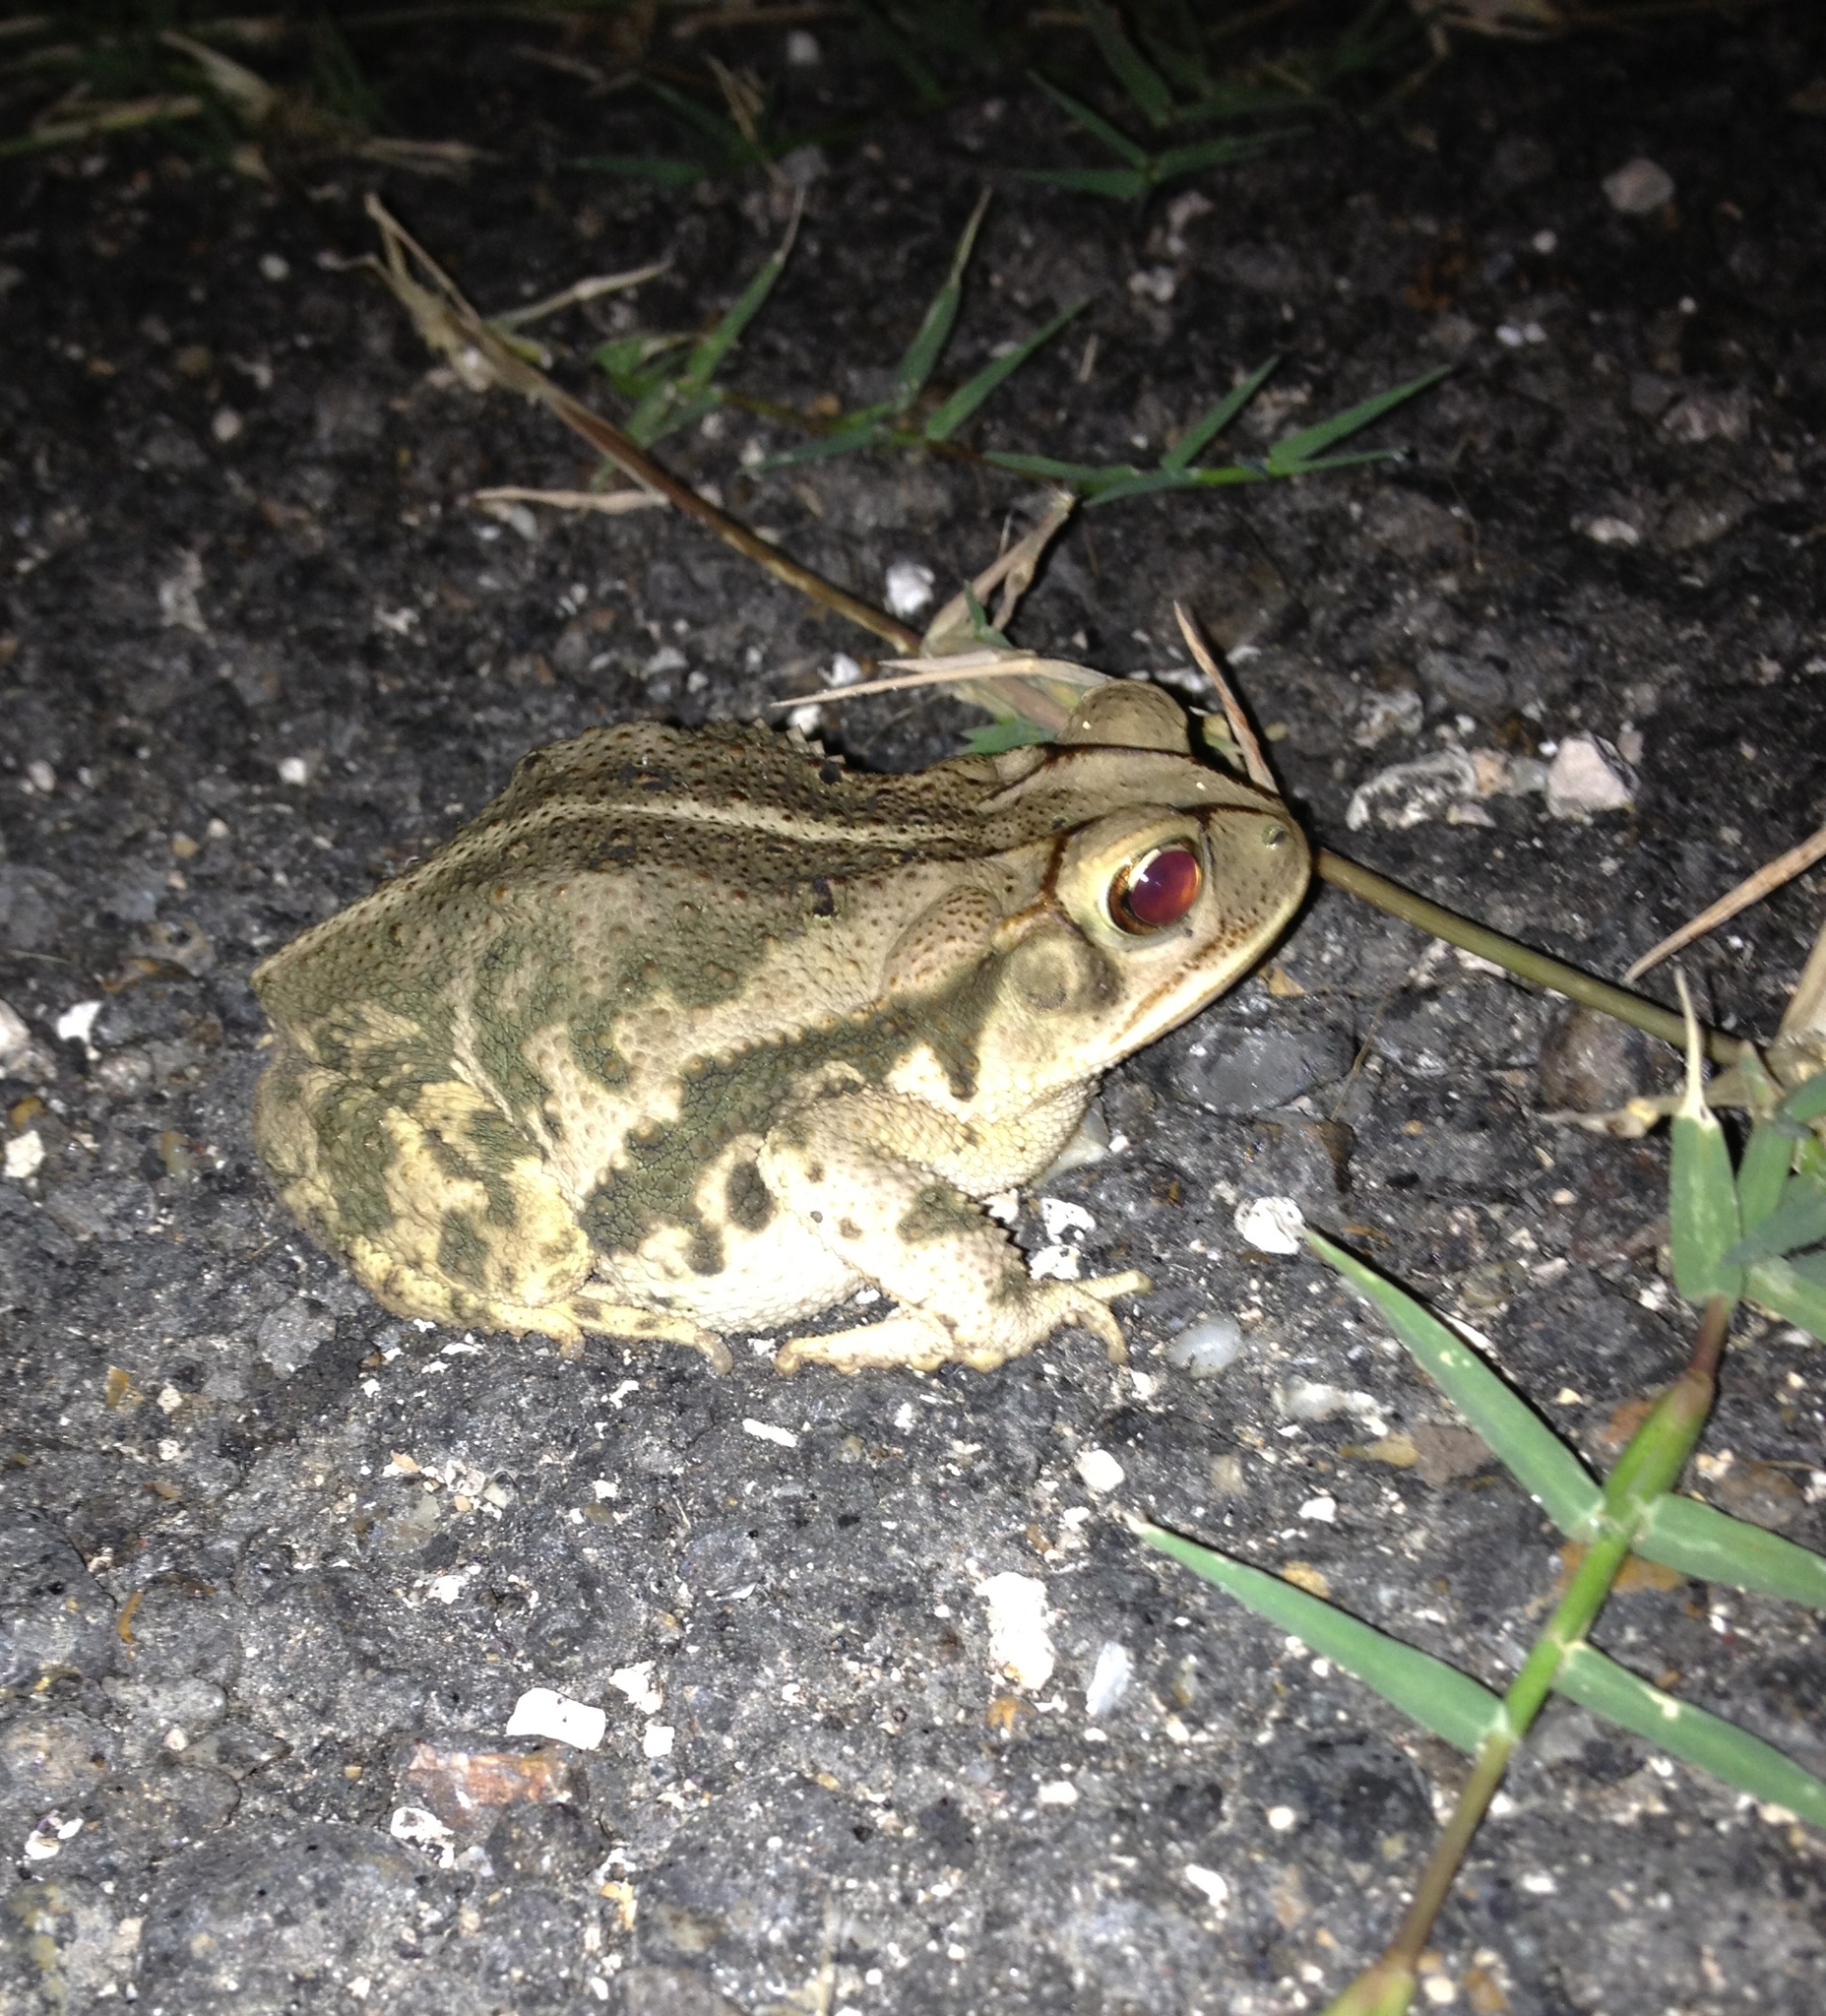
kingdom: Animalia
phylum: Chordata
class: Amphibia
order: Anura
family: Bufonidae
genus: Incilius
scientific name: Incilius nebulifer
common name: Gulf coast toad
